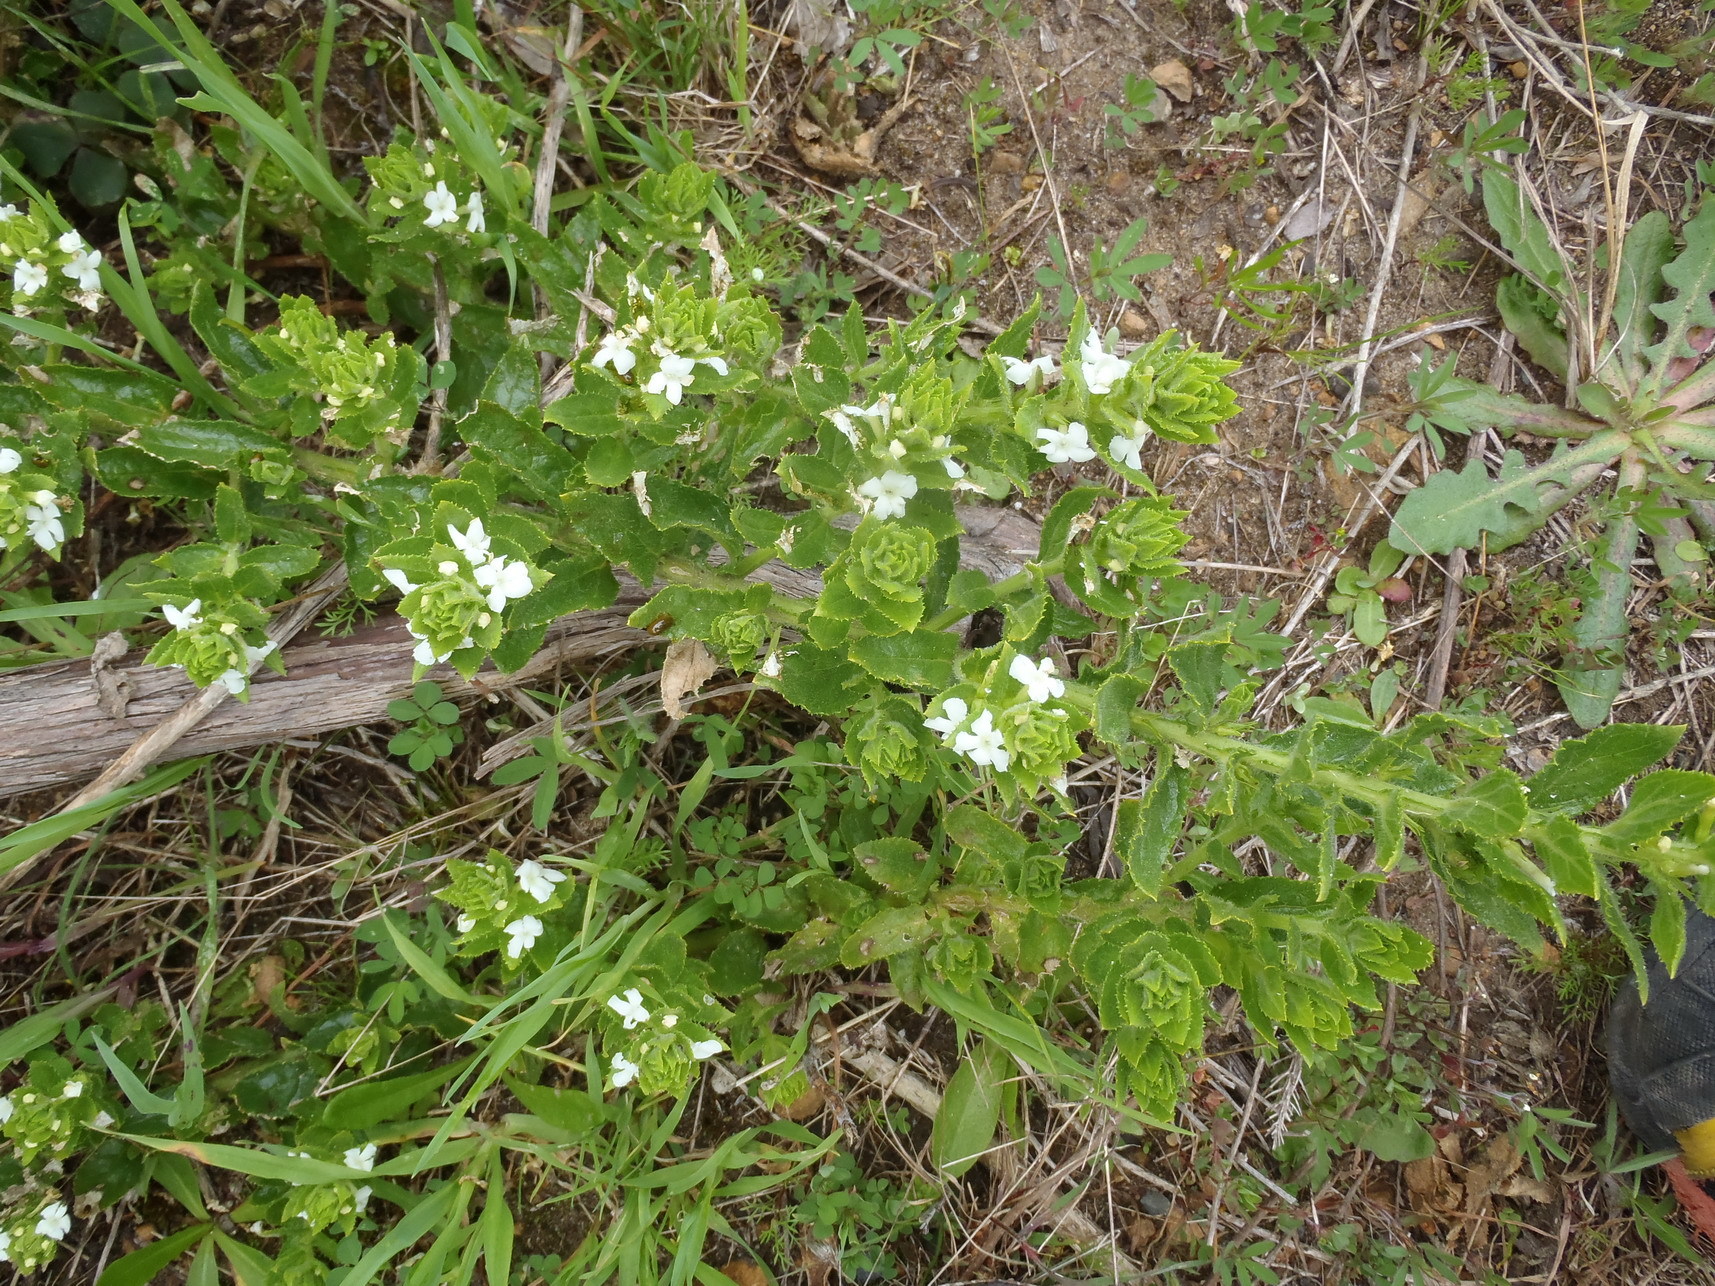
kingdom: Plantae
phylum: Tracheophyta
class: Magnoliopsida
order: Lamiales
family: Scrophulariaceae
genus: Oftia
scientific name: Oftia africana
